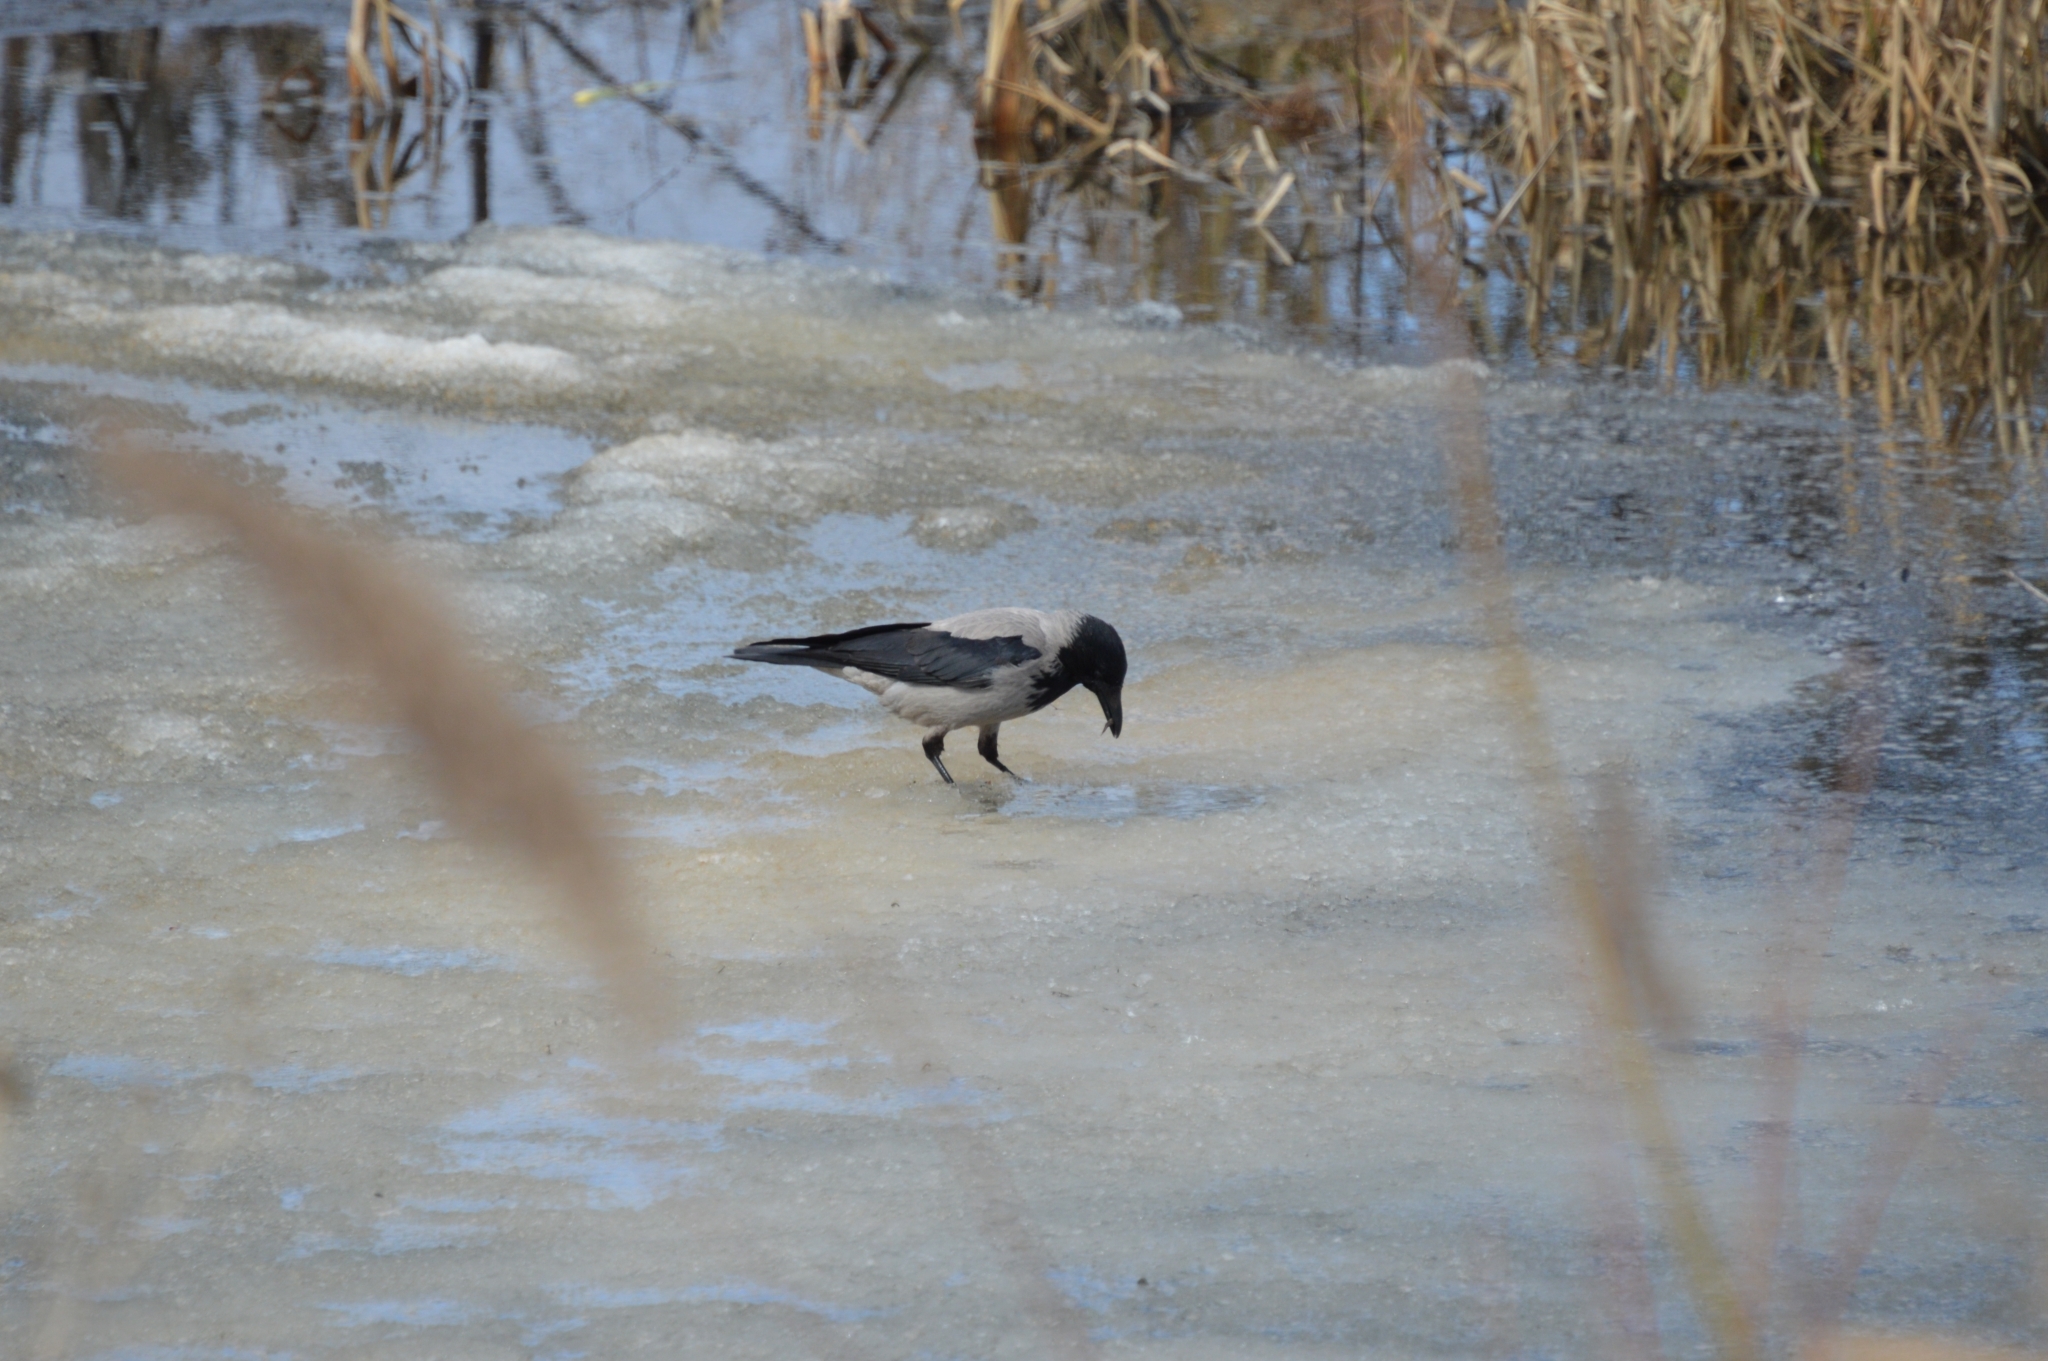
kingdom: Animalia
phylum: Chordata
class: Aves
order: Passeriformes
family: Corvidae
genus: Corvus
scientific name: Corvus cornix
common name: Hooded crow
